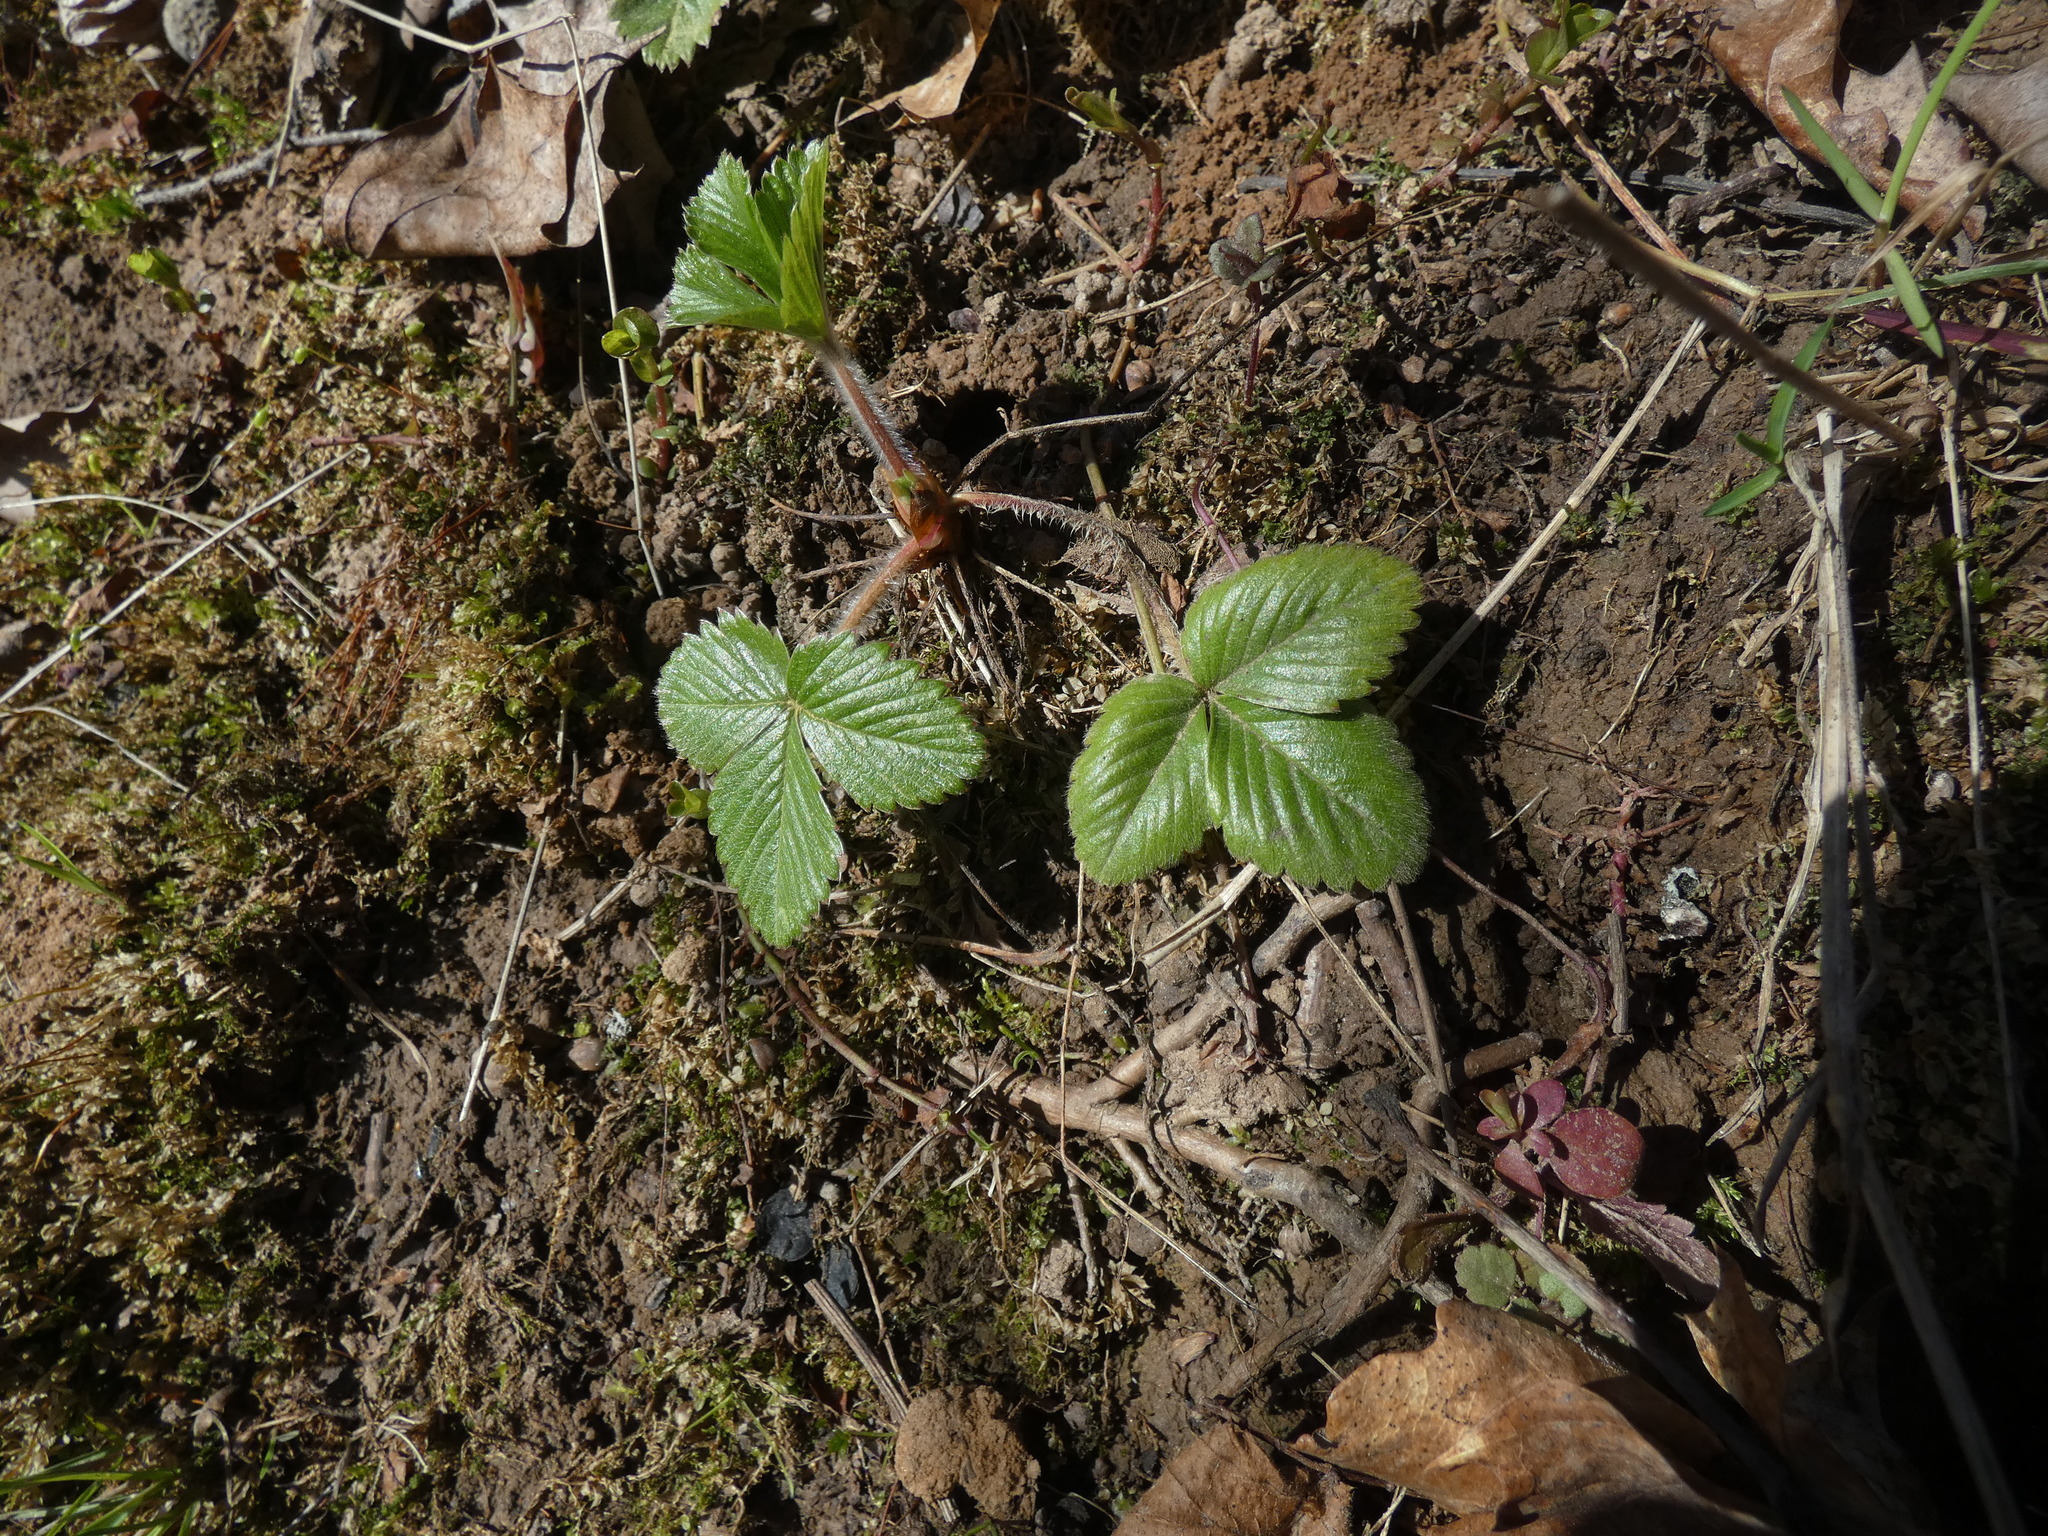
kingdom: Plantae
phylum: Tracheophyta
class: Magnoliopsida
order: Rosales
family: Rosaceae
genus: Fragaria
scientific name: Fragaria vesca
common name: Wild strawberry
